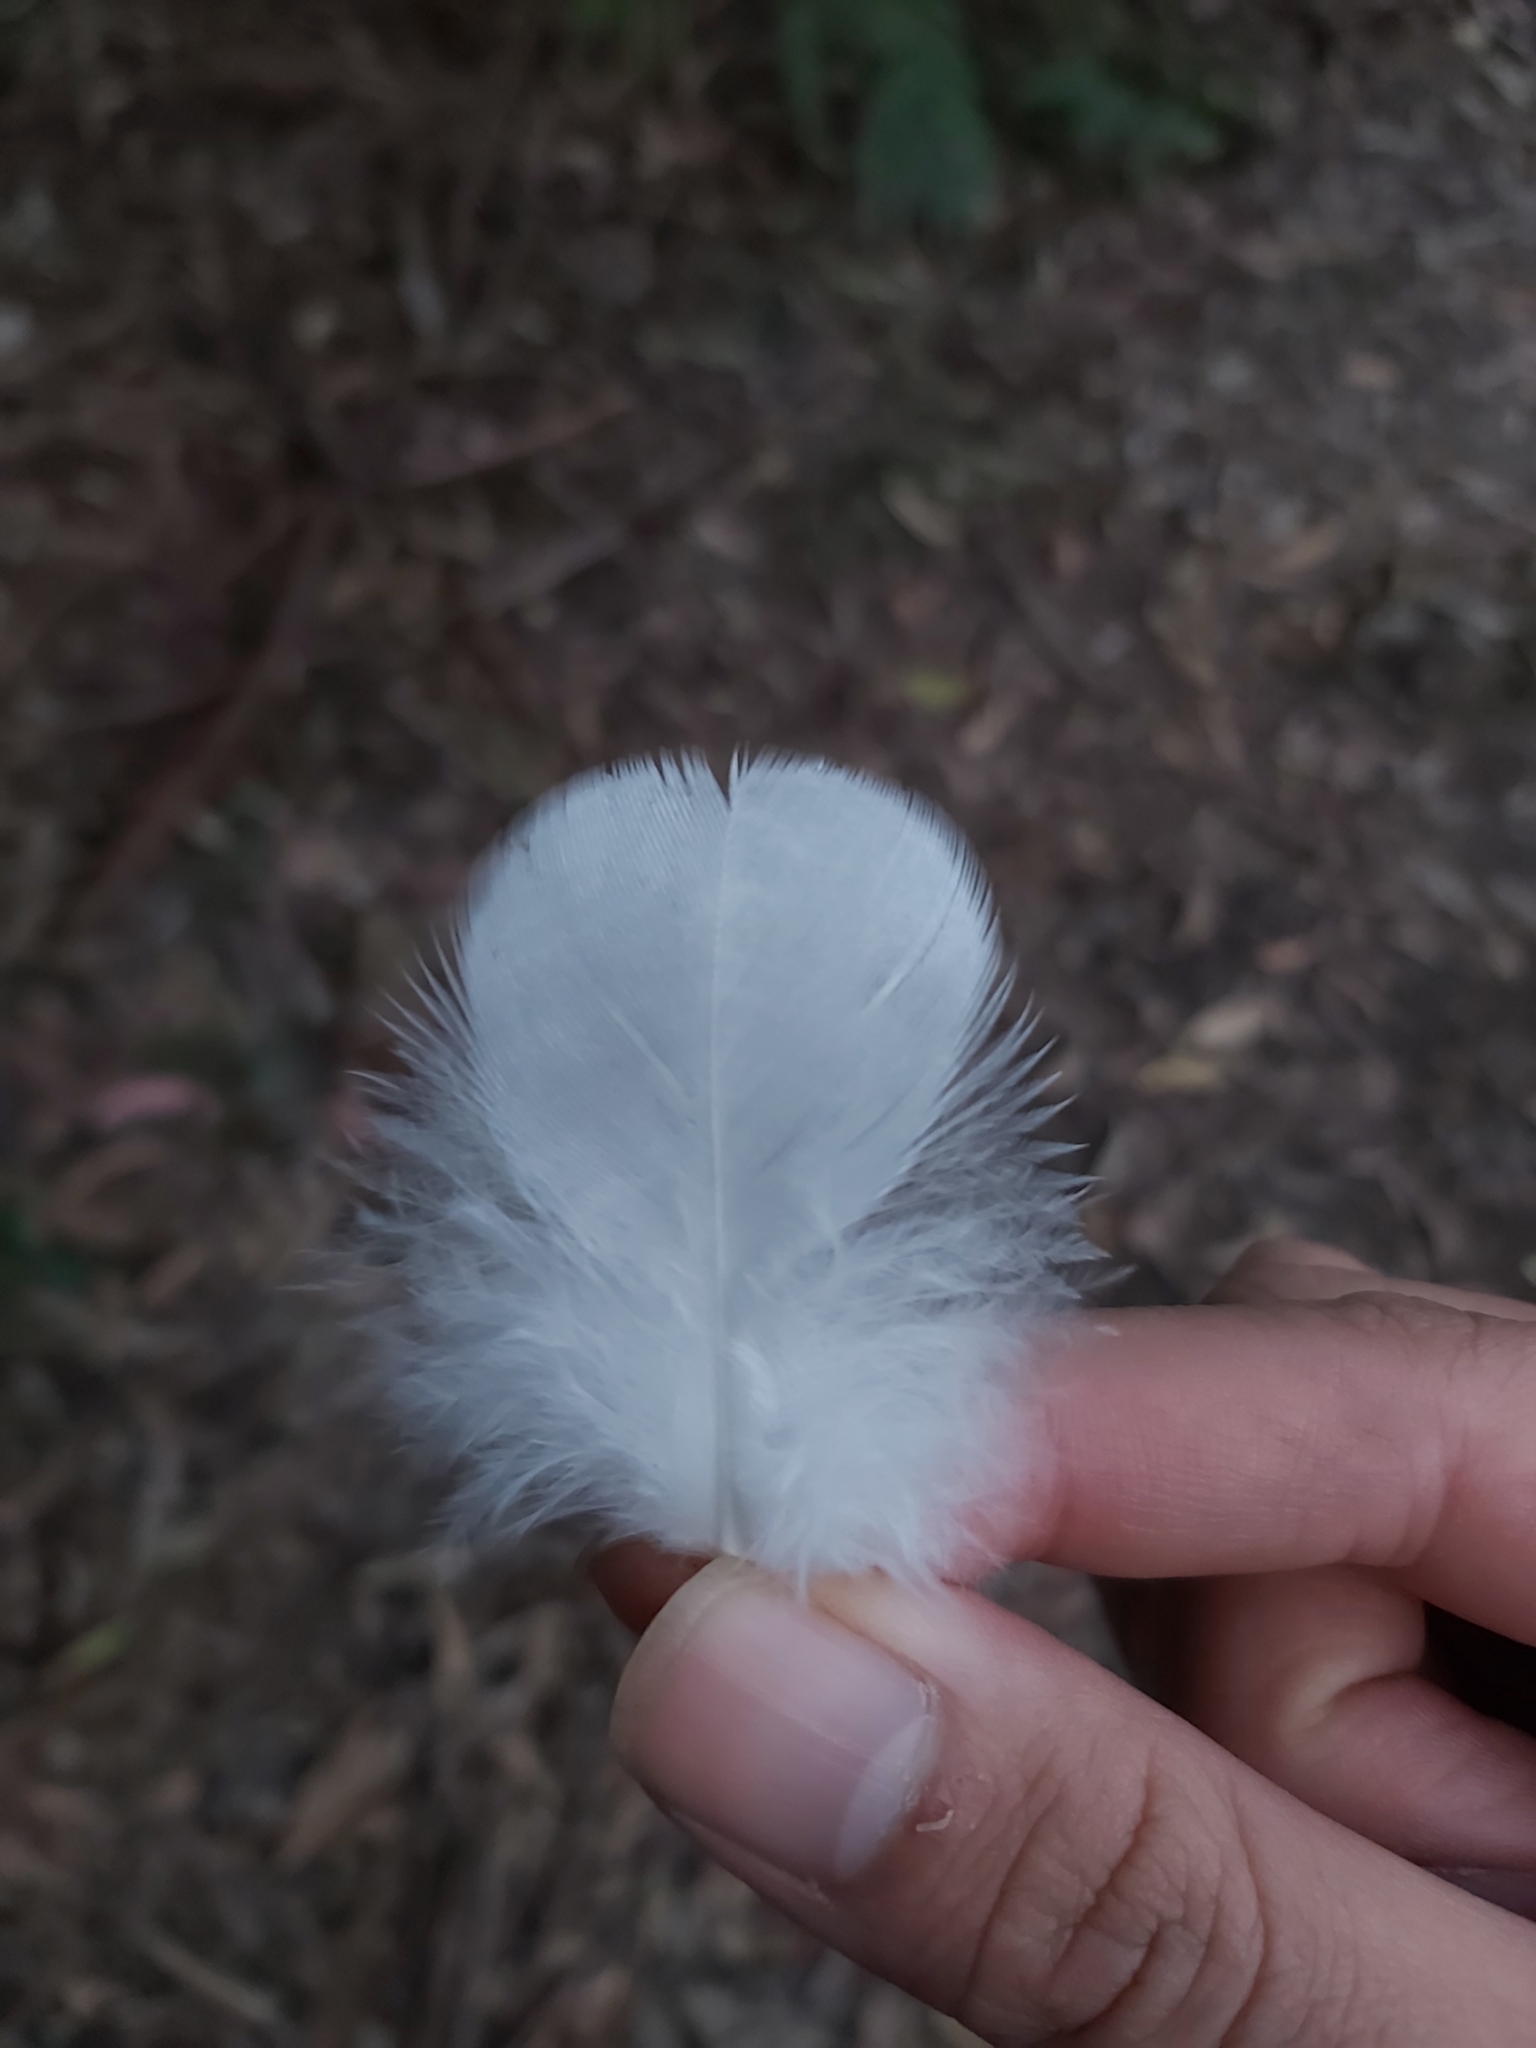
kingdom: Animalia
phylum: Chordata
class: Aves
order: Psittaciformes
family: Psittacidae
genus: Cacatua
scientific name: Cacatua galerita
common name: Sulphur-crested cockatoo
